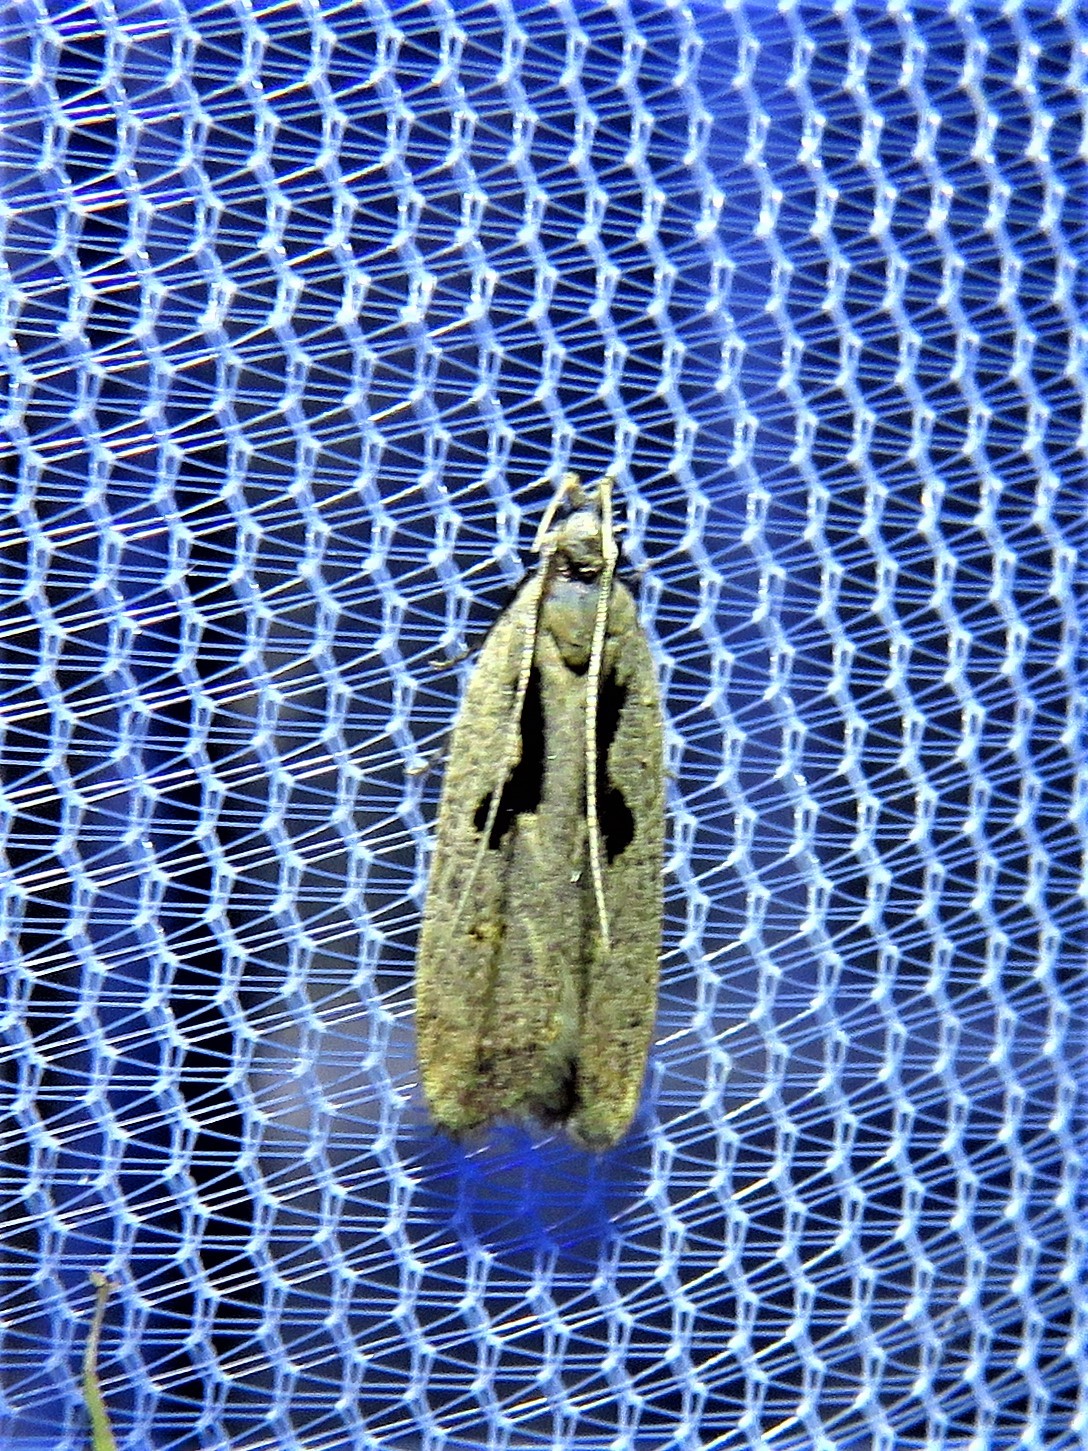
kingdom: Animalia
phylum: Arthropoda
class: Insecta
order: Lepidoptera
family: Gelechiidae
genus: Dichomeris
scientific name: Dichomeris laetitia
